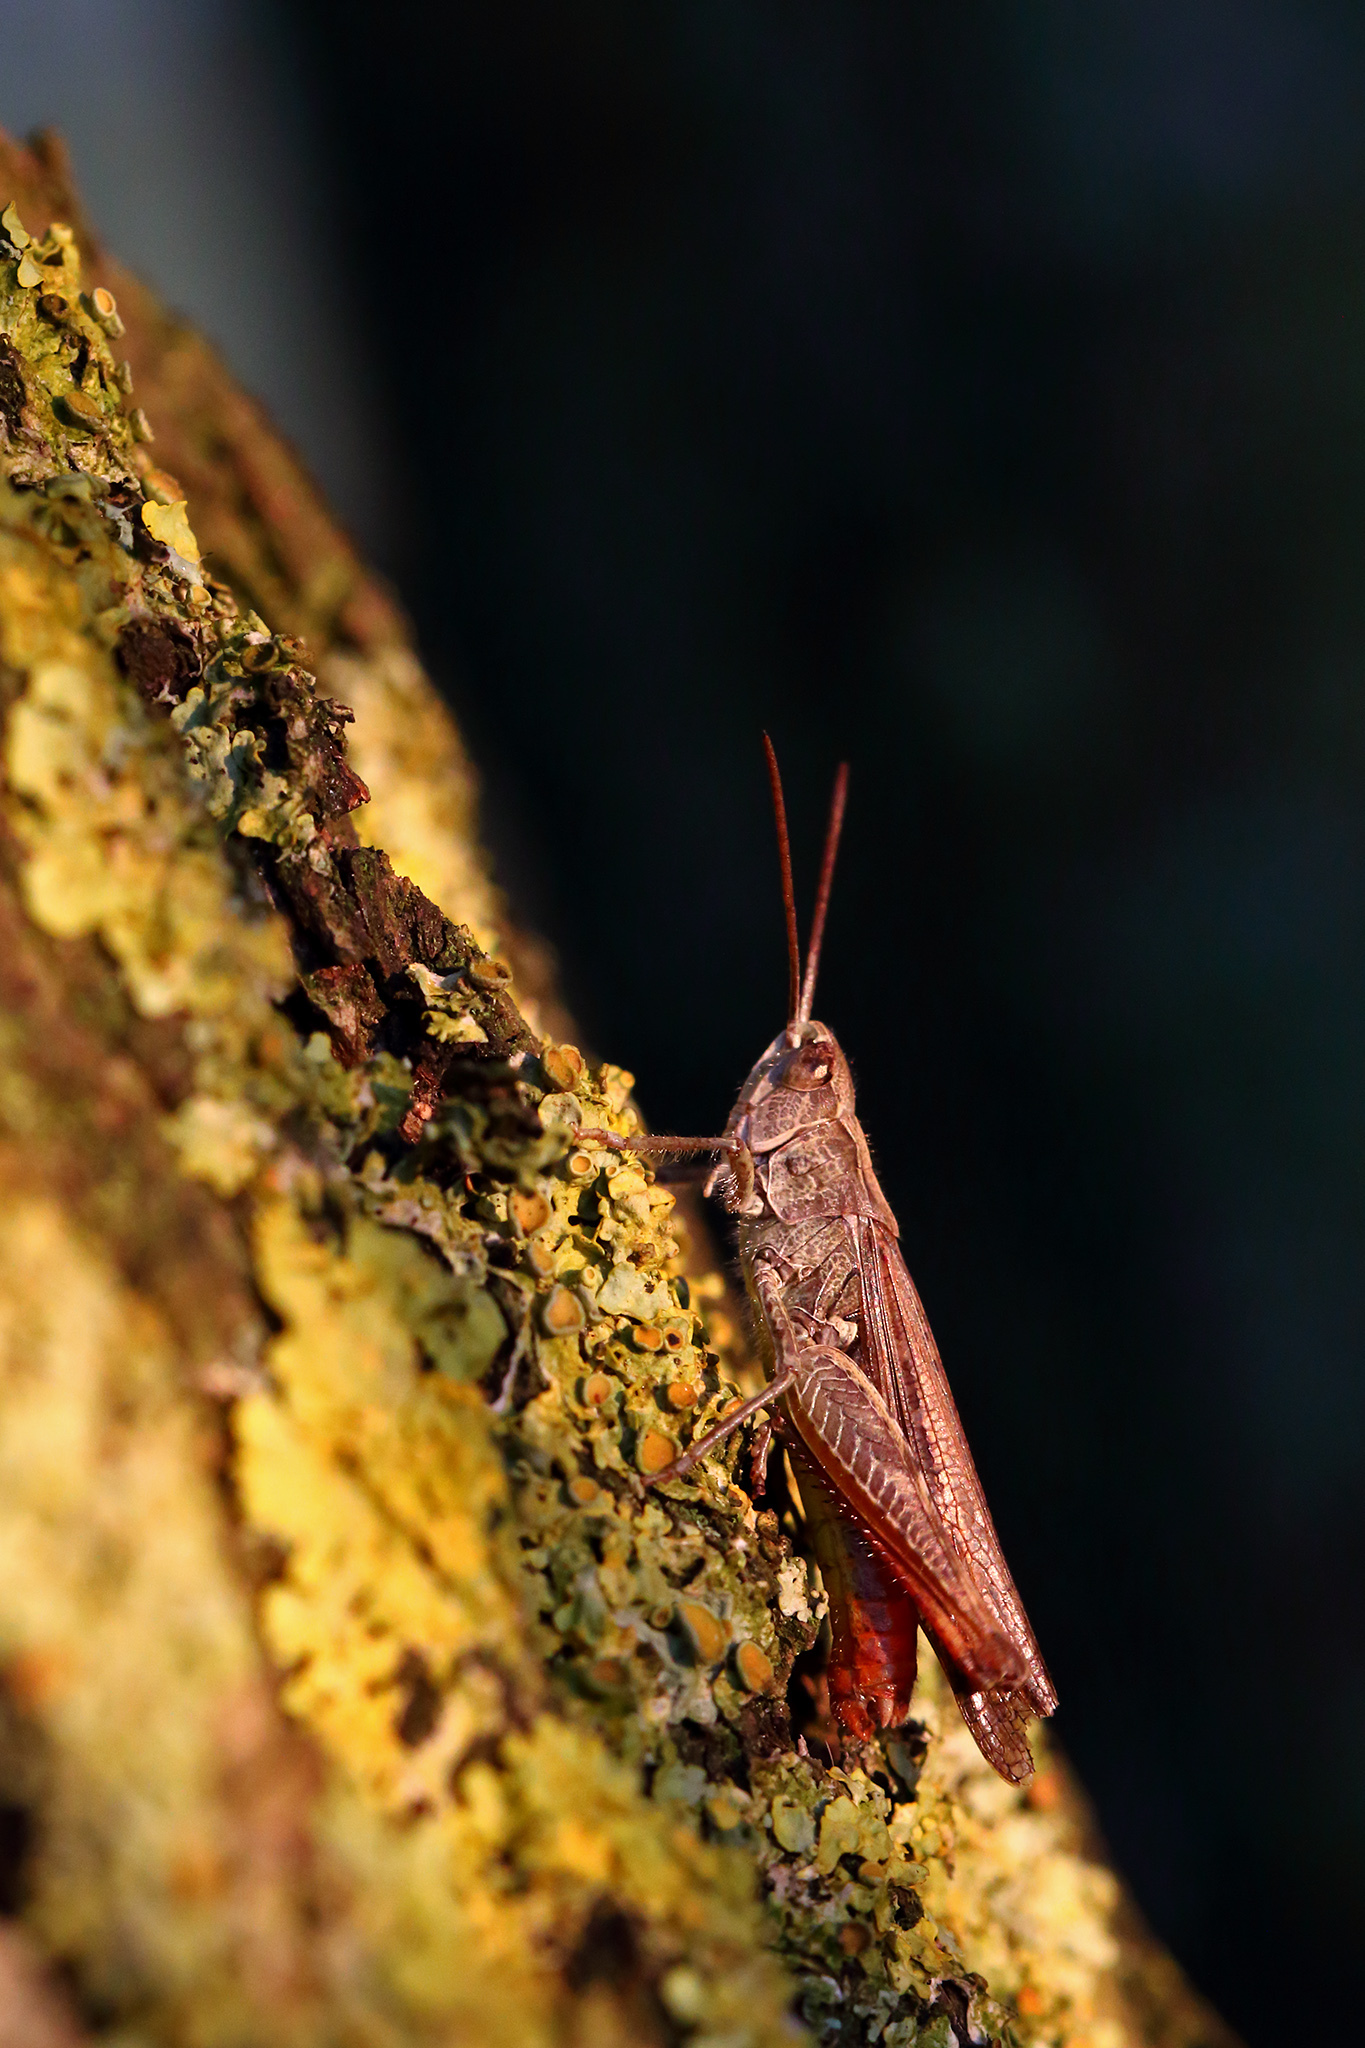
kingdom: Animalia
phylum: Arthropoda
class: Insecta
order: Orthoptera
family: Acrididae
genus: Chorthippus
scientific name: Chorthippus brunneus
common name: Field grasshopper
